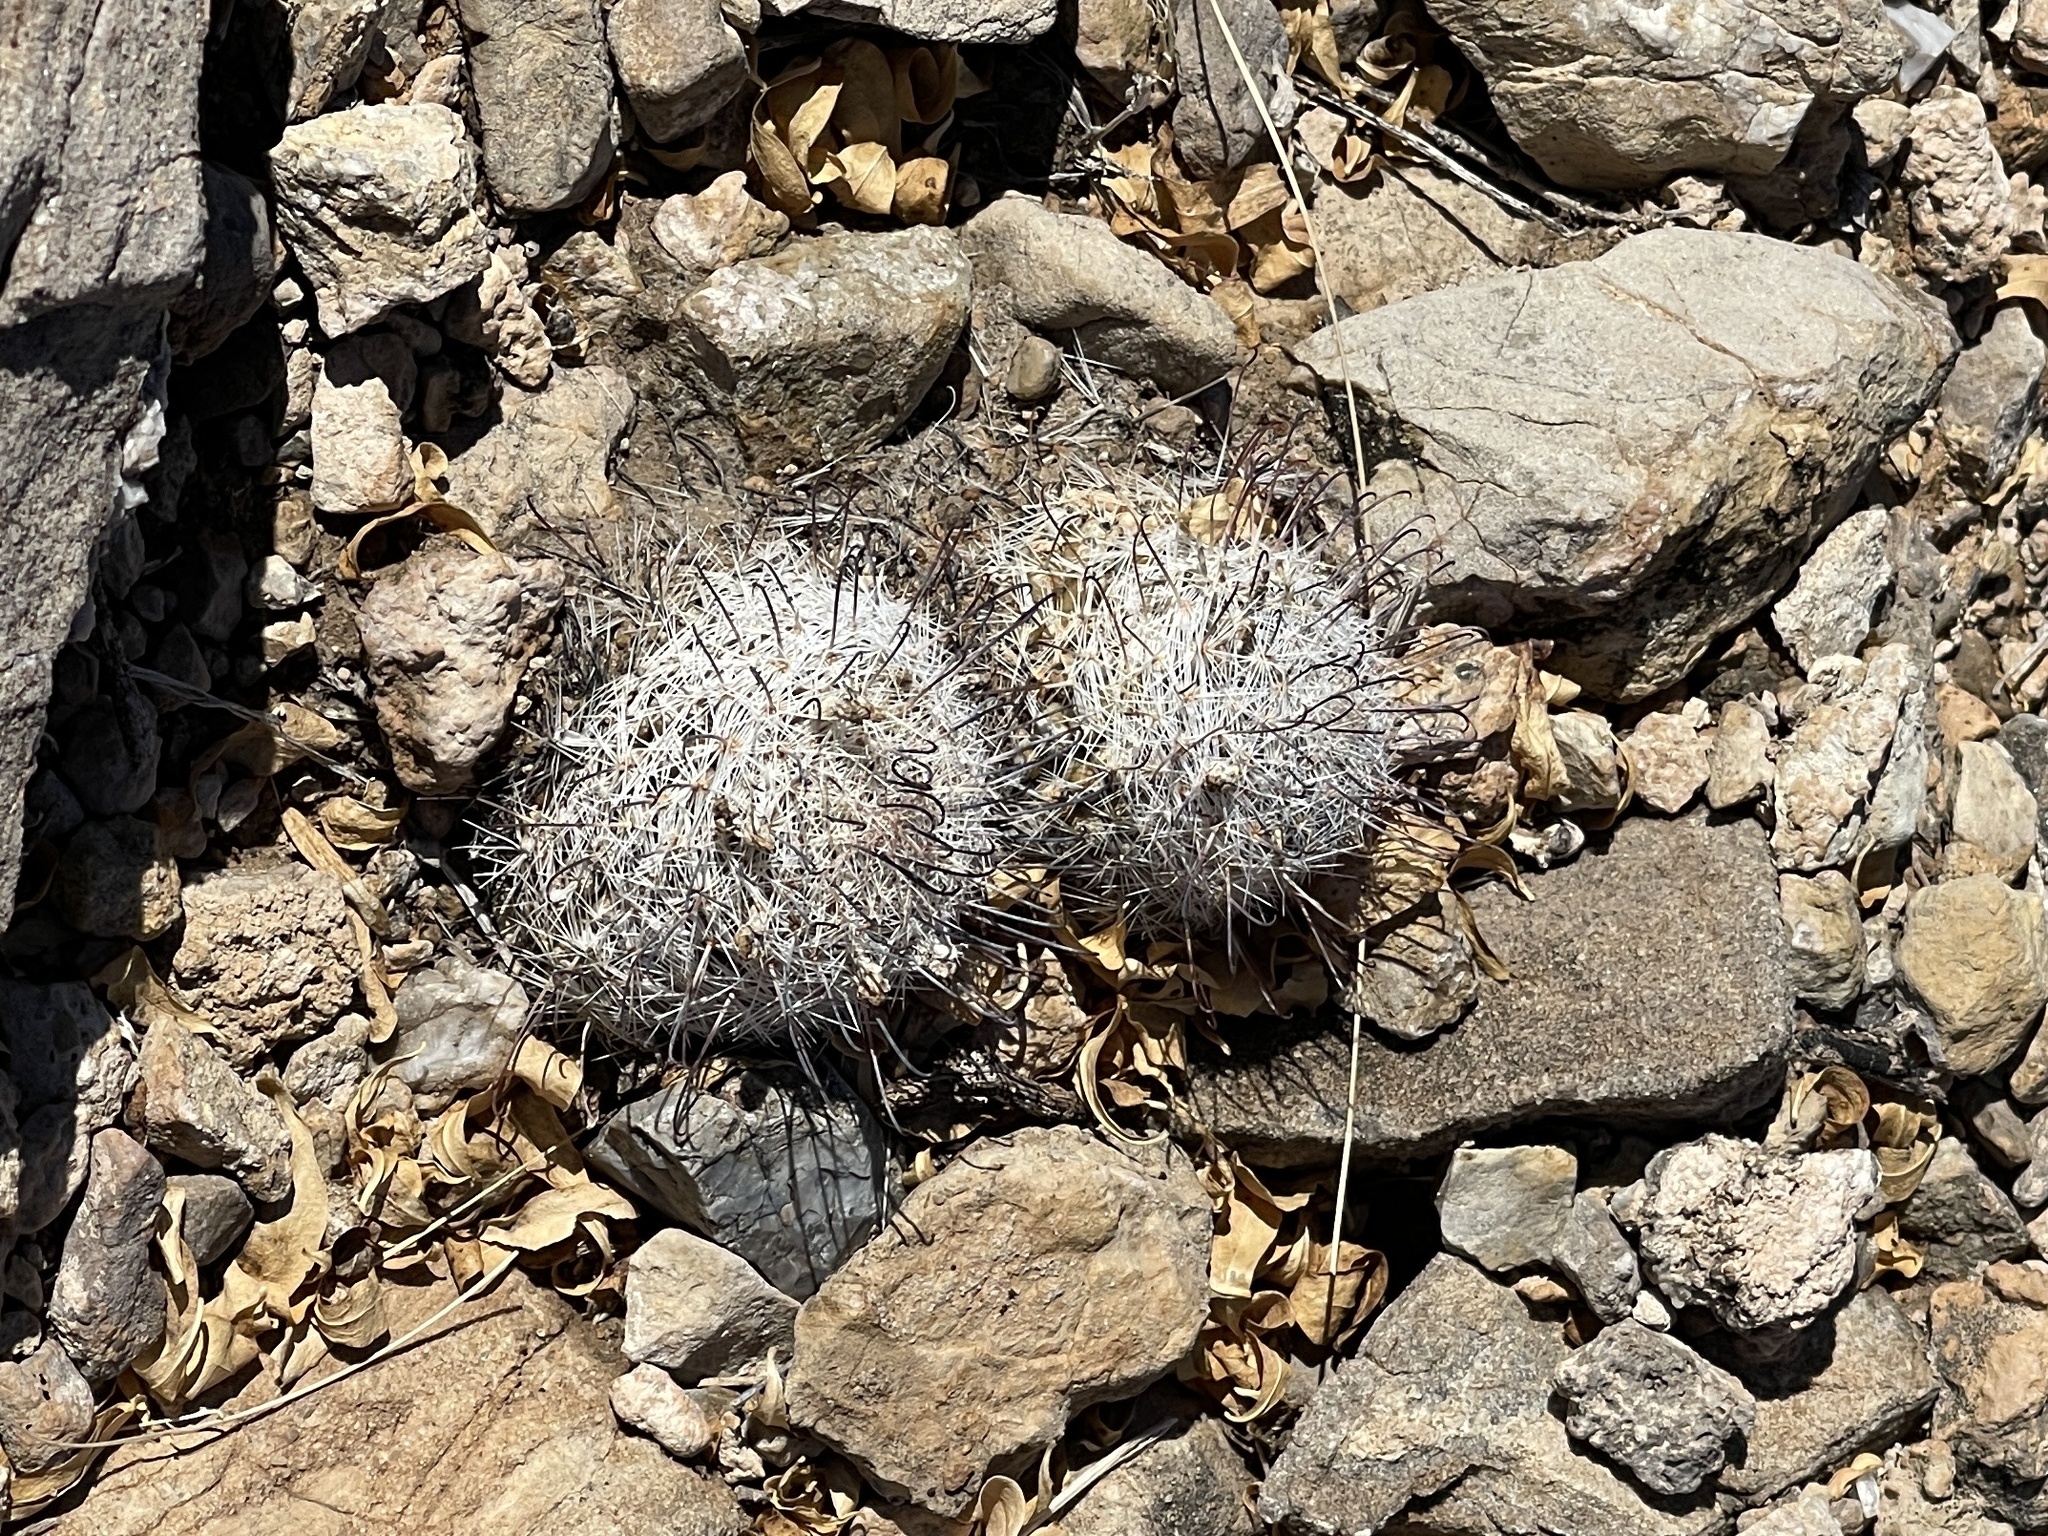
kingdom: Plantae
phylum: Tracheophyta
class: Magnoliopsida
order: Caryophyllales
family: Cactaceae
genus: Cochemiea
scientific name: Cochemiea grahamii
